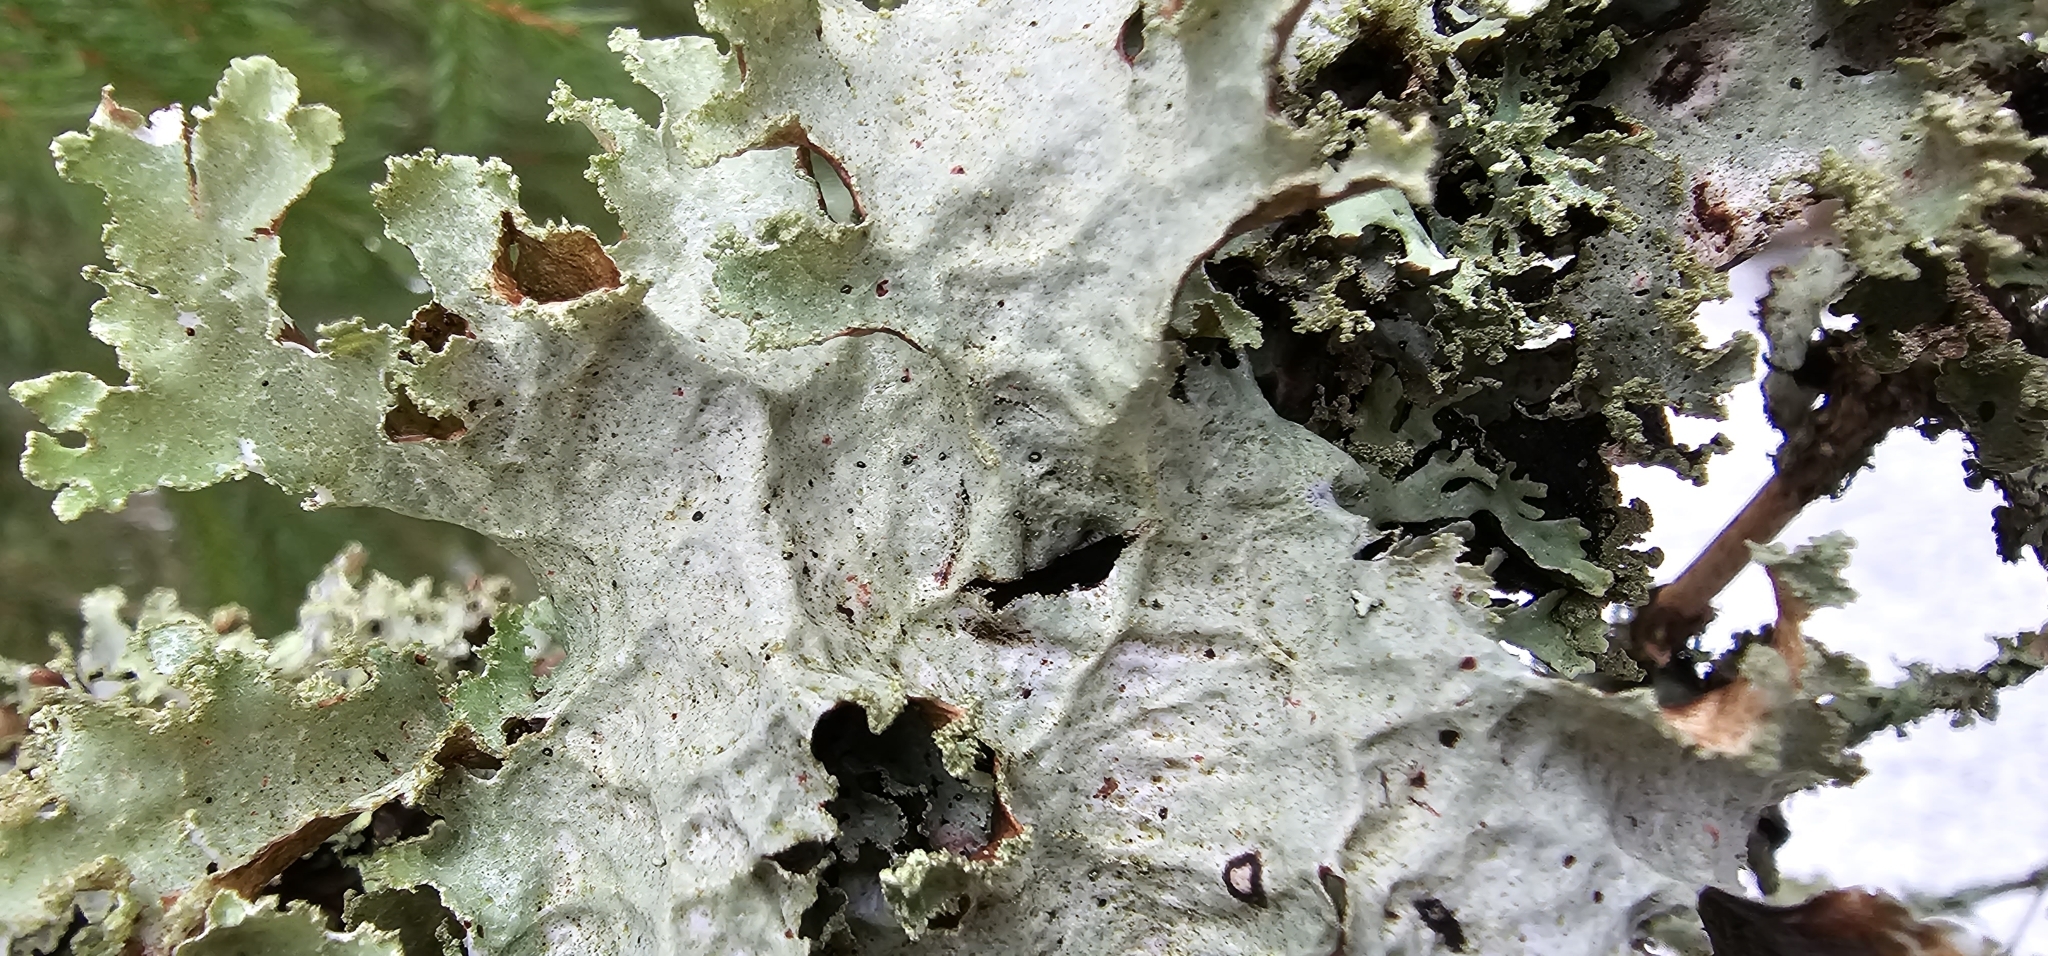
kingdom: Fungi
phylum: Ascomycota
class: Lecanoromycetes
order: Lecanorales
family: Parmeliaceae
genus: Platismatia
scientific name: Platismatia glauca
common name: Varied rag lichen
